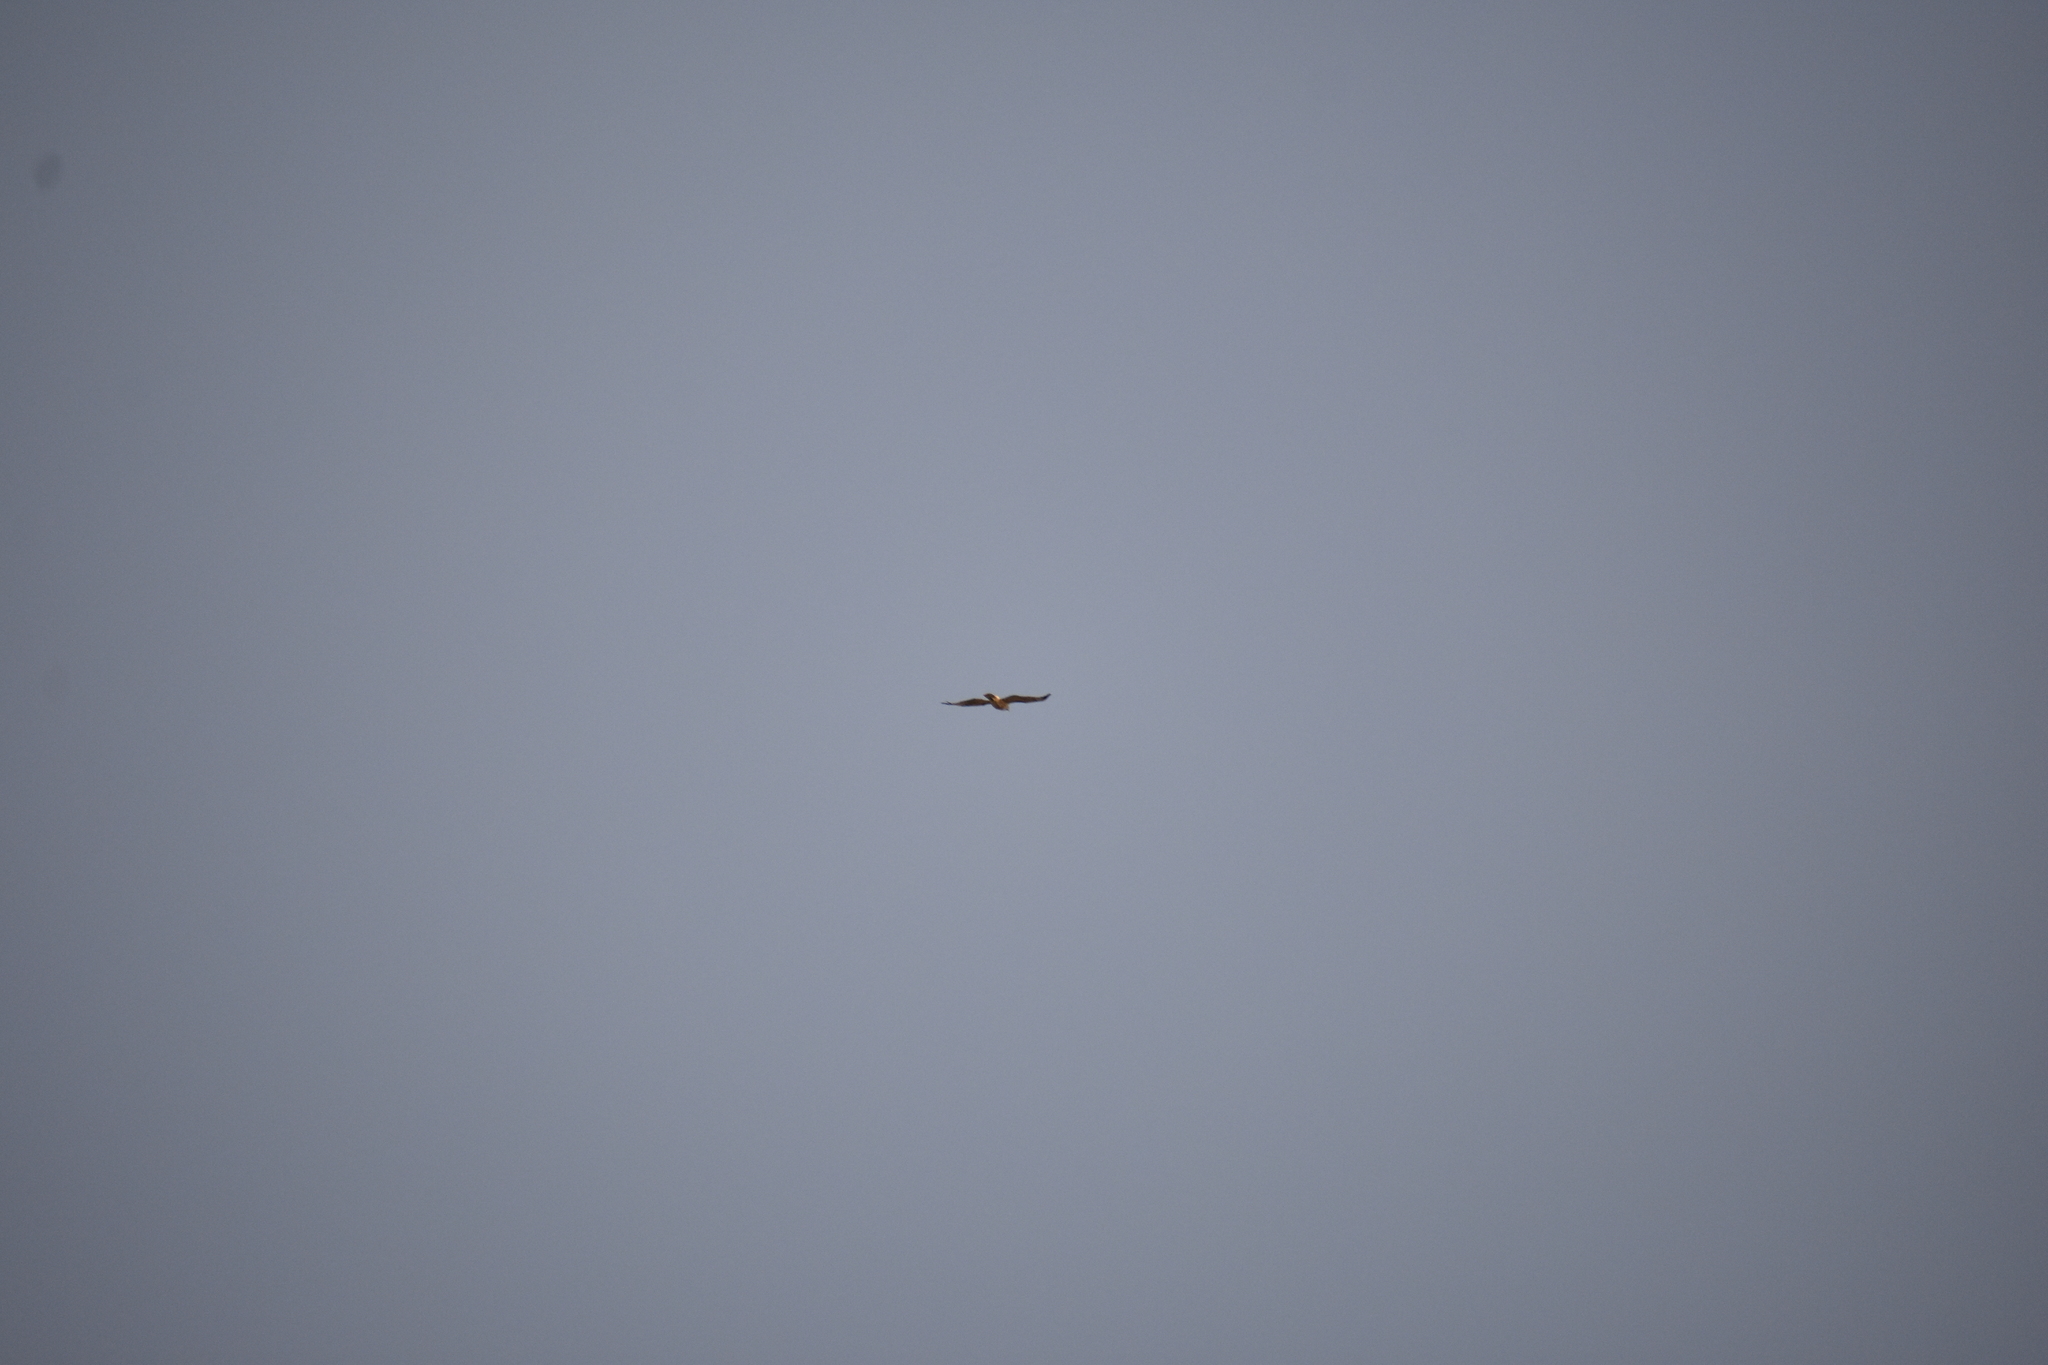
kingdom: Animalia
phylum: Chordata
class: Aves
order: Accipitriformes
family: Accipitridae
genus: Buteo
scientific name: Buteo jamaicensis
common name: Red-tailed hawk
